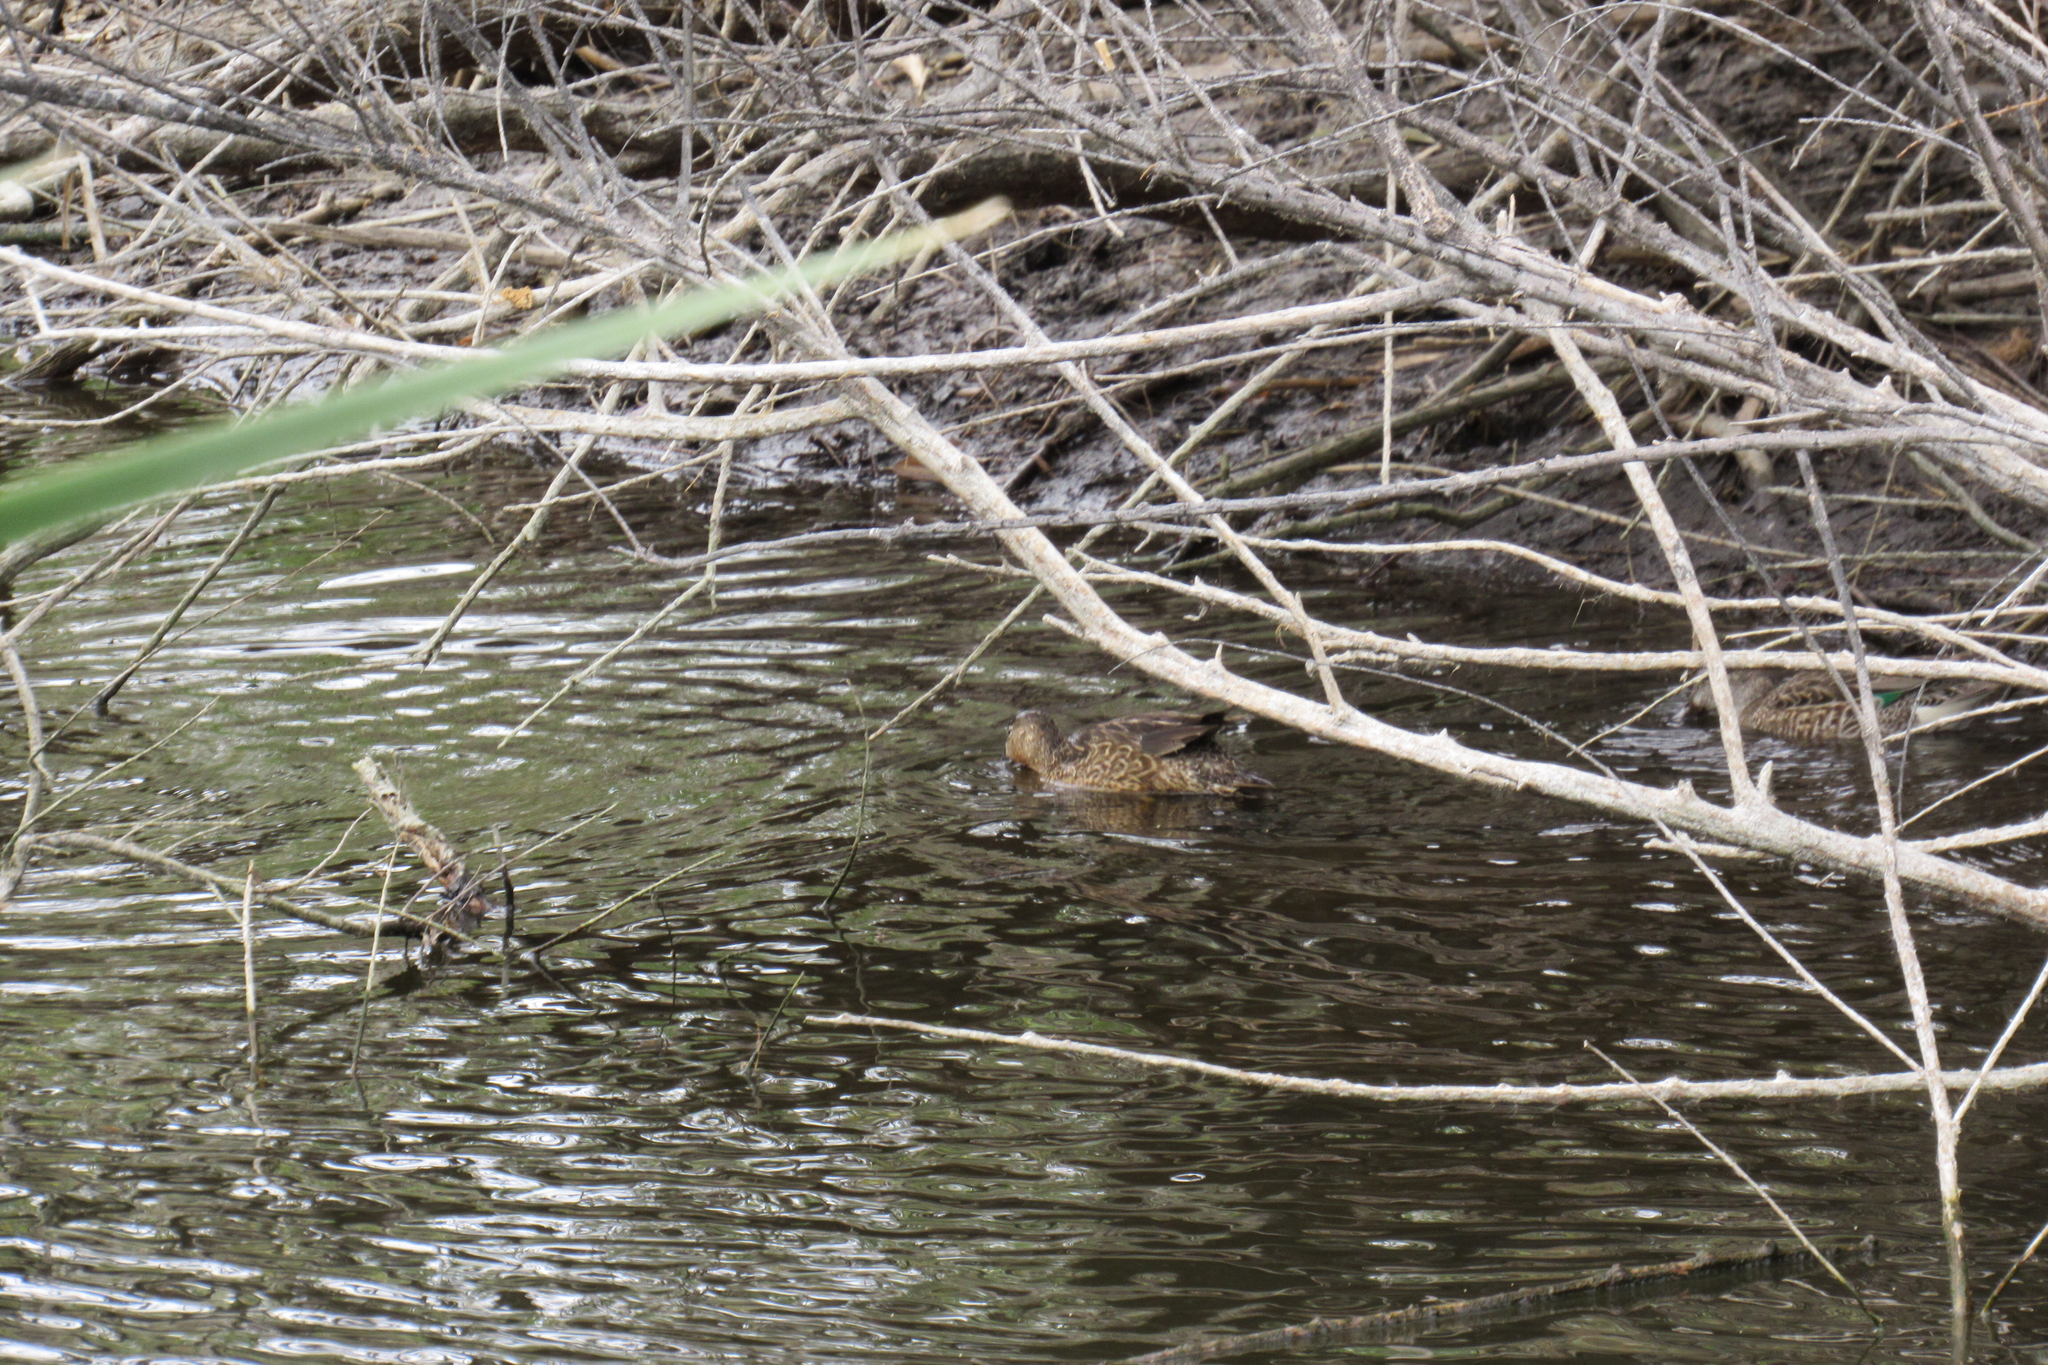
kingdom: Animalia
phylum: Chordata
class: Aves
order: Anseriformes
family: Anatidae
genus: Spatula
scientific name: Spatula cyanoptera
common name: Cinnamon teal
